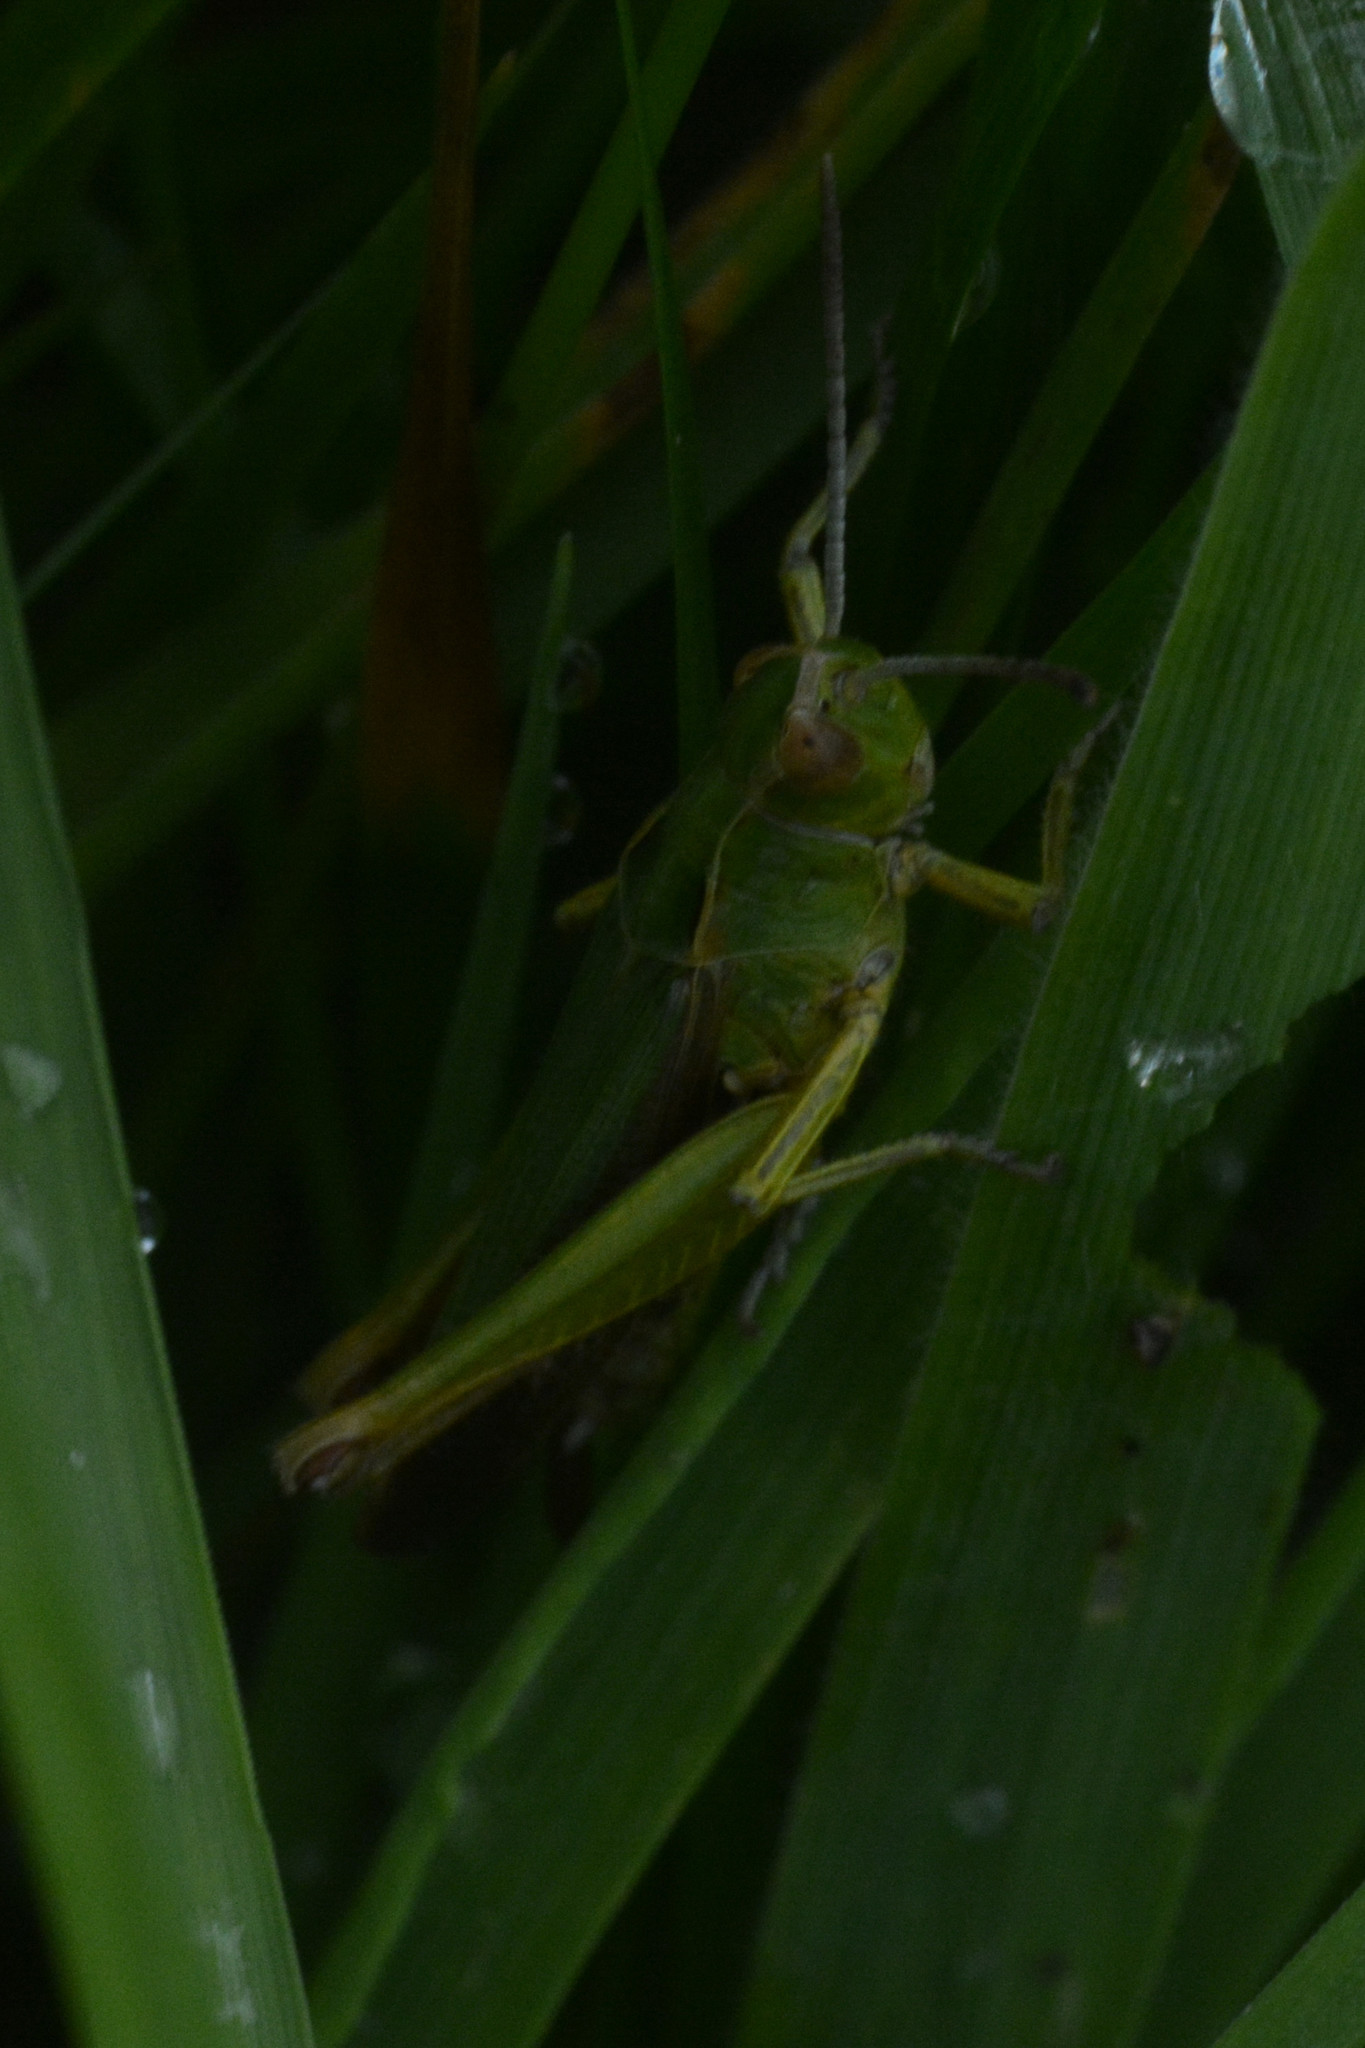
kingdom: Animalia
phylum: Arthropoda
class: Insecta
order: Orthoptera
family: Acrididae
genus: Omocestus
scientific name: Omocestus viridulus
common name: Common green grasshopper
